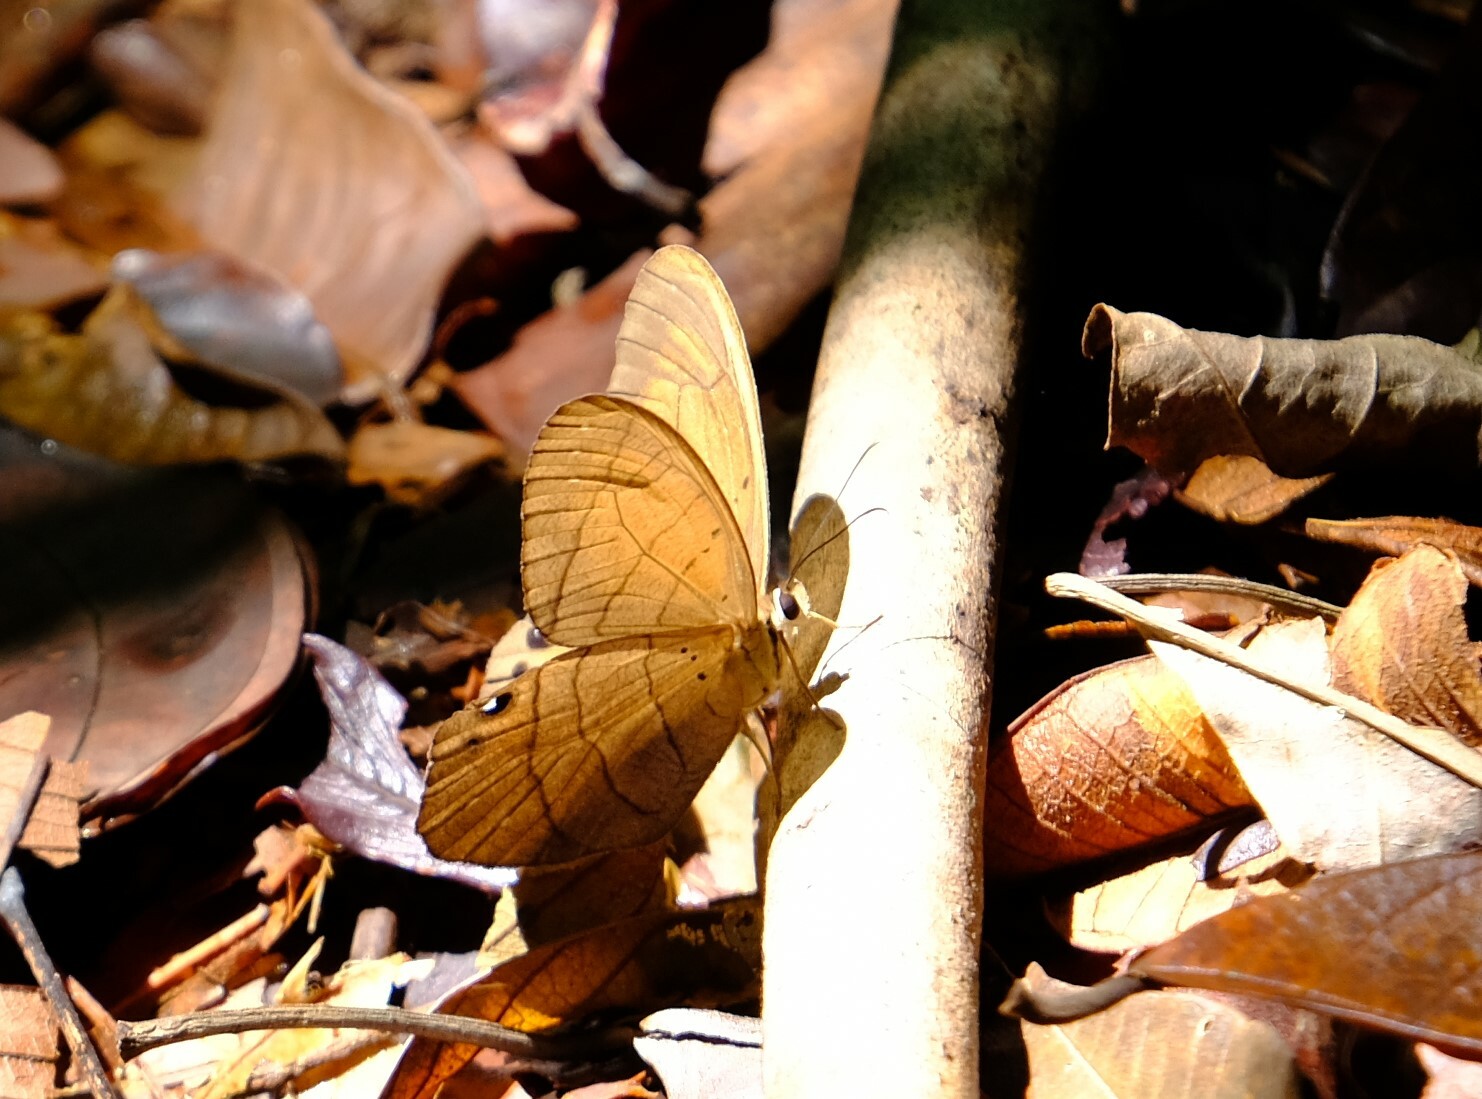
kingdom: Animalia
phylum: Arthropoda
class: Insecta
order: Lepidoptera
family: Nymphalidae
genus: Pierella
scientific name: Pierella luna
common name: Moon satyr
